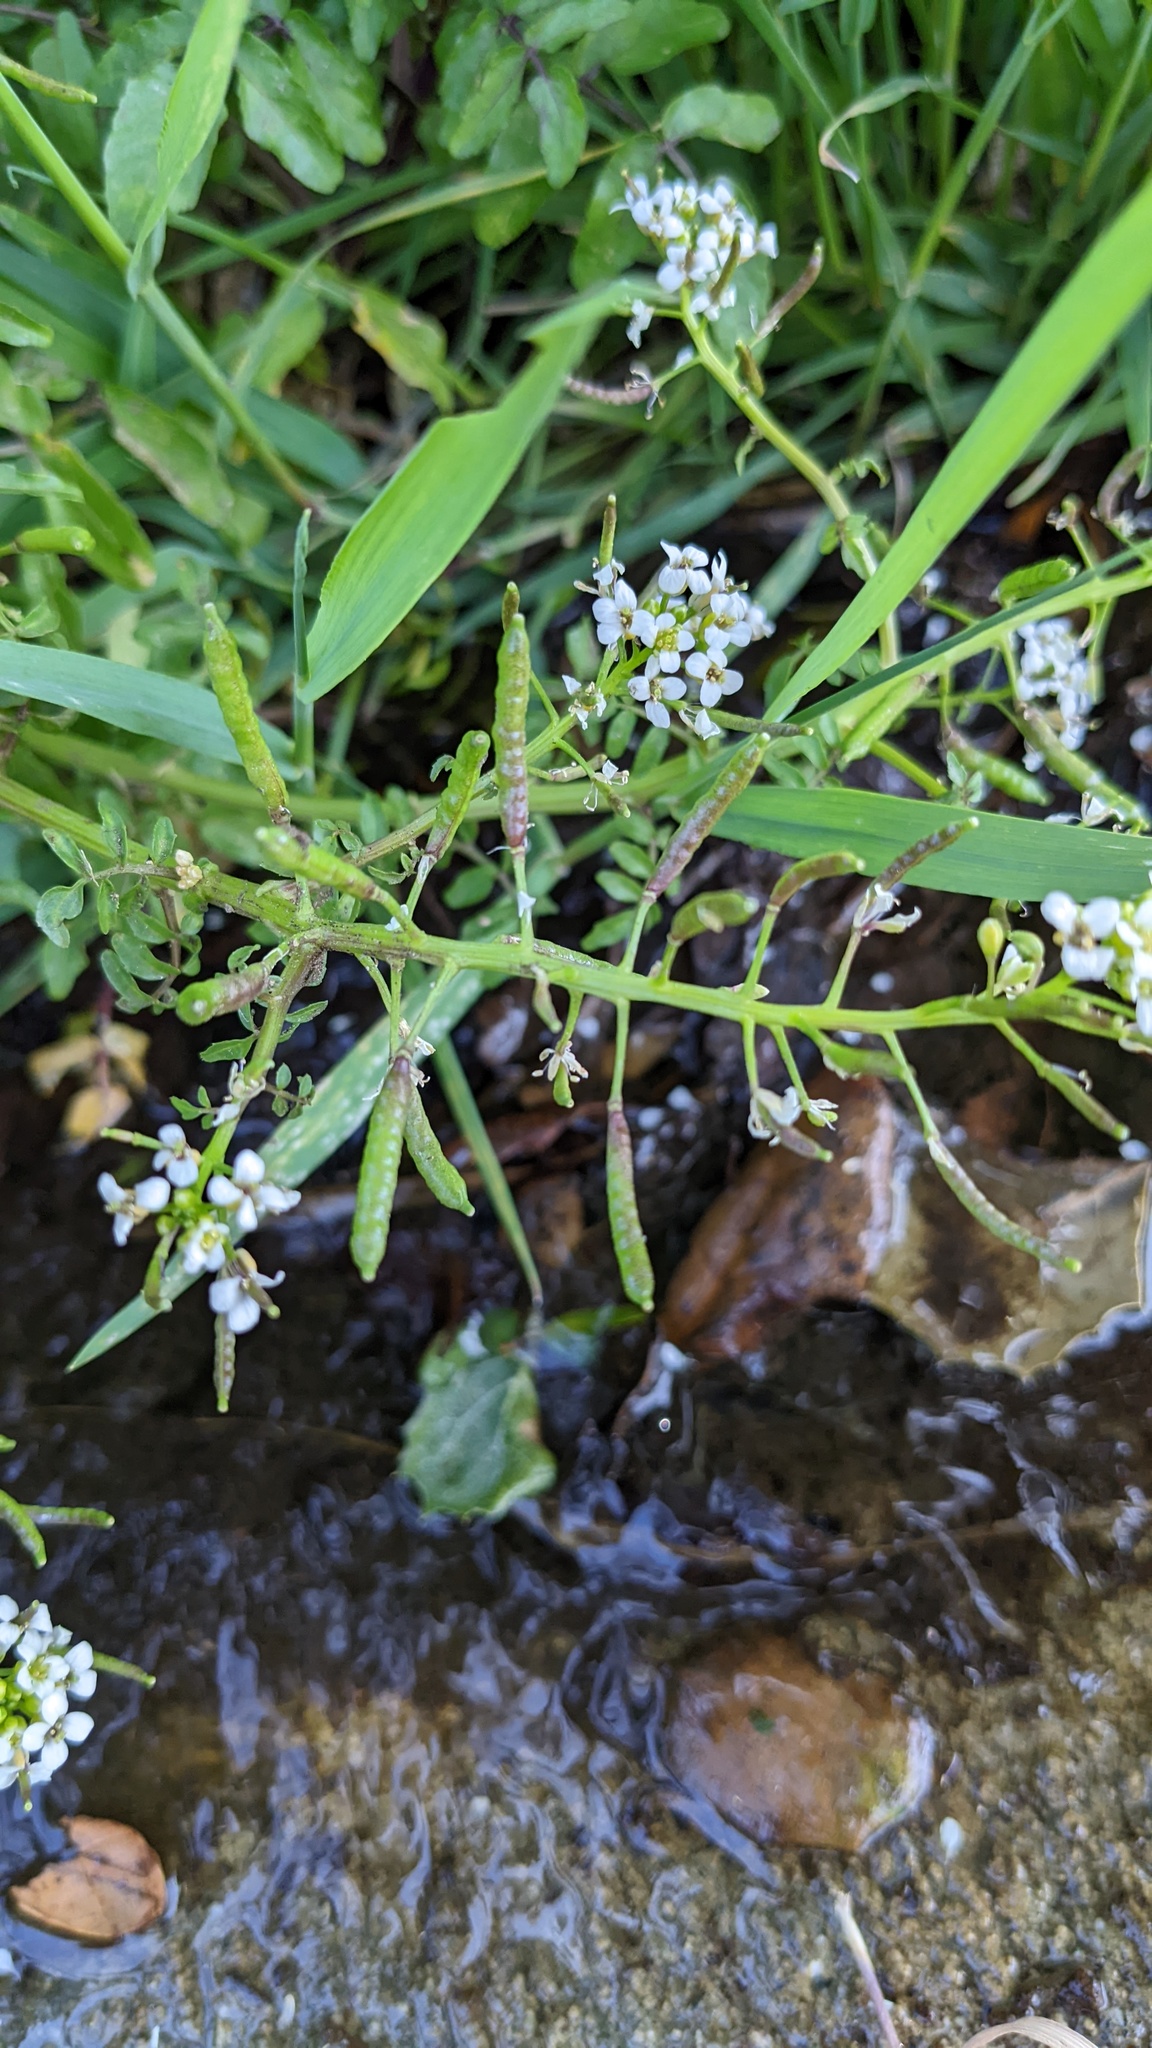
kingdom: Plantae
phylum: Tracheophyta
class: Magnoliopsida
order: Brassicales
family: Brassicaceae
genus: Nasturtium
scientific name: Nasturtium officinale
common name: Watercress
